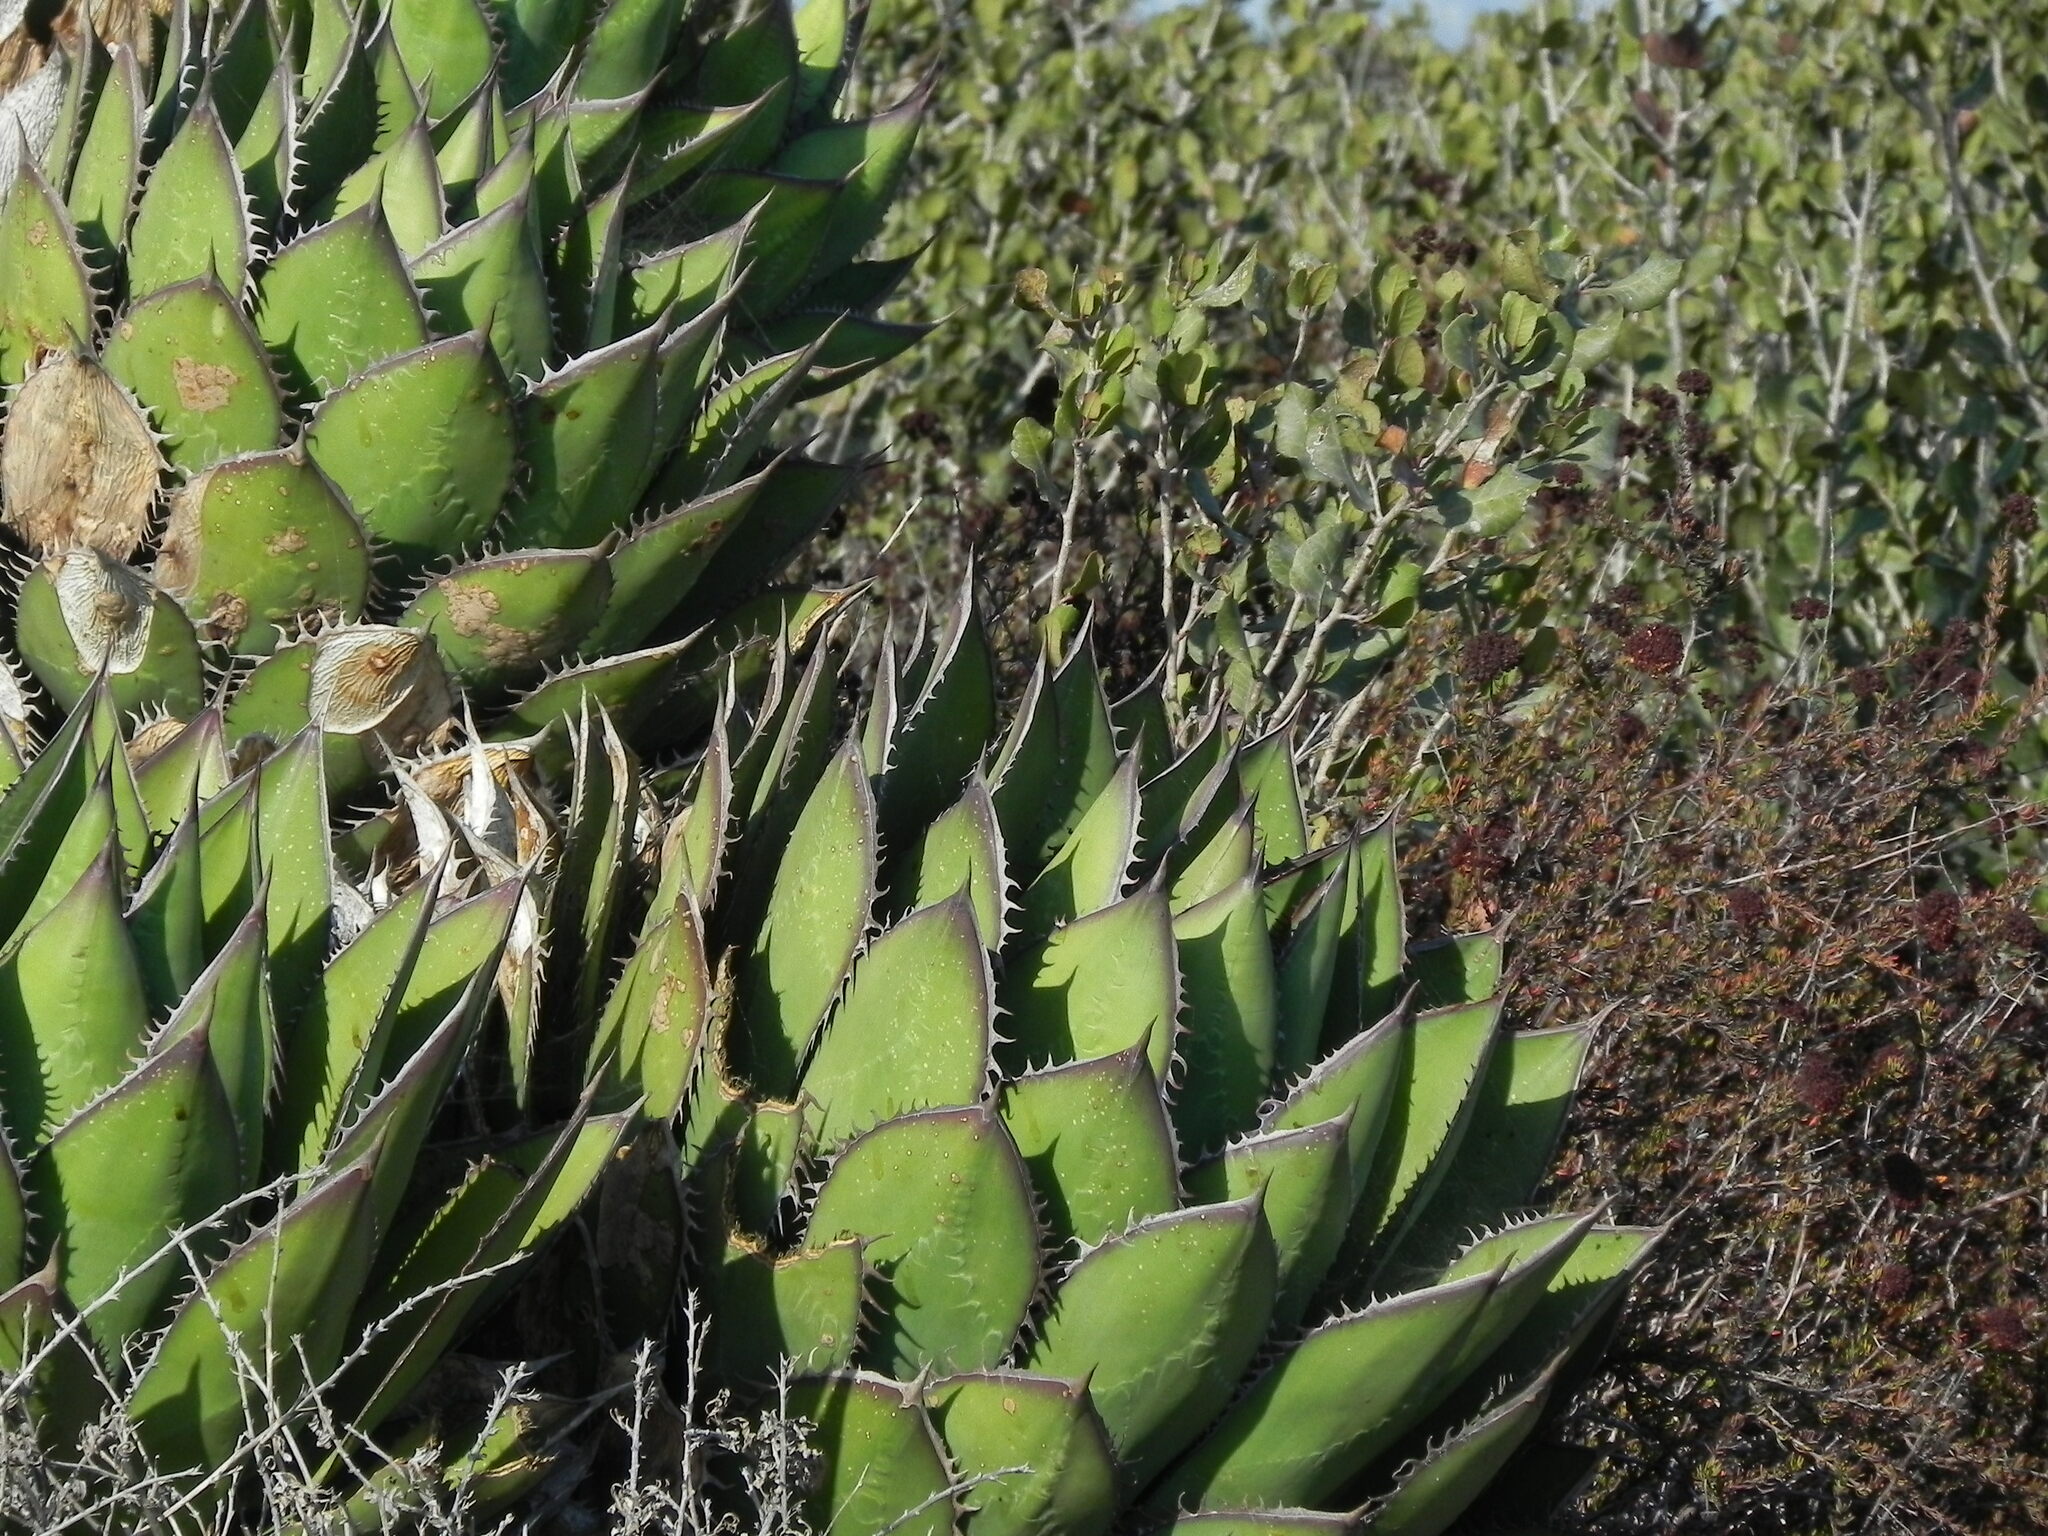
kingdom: Plantae
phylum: Tracheophyta
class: Liliopsida
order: Asparagales
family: Asparagaceae
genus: Agave
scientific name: Agave shawii
